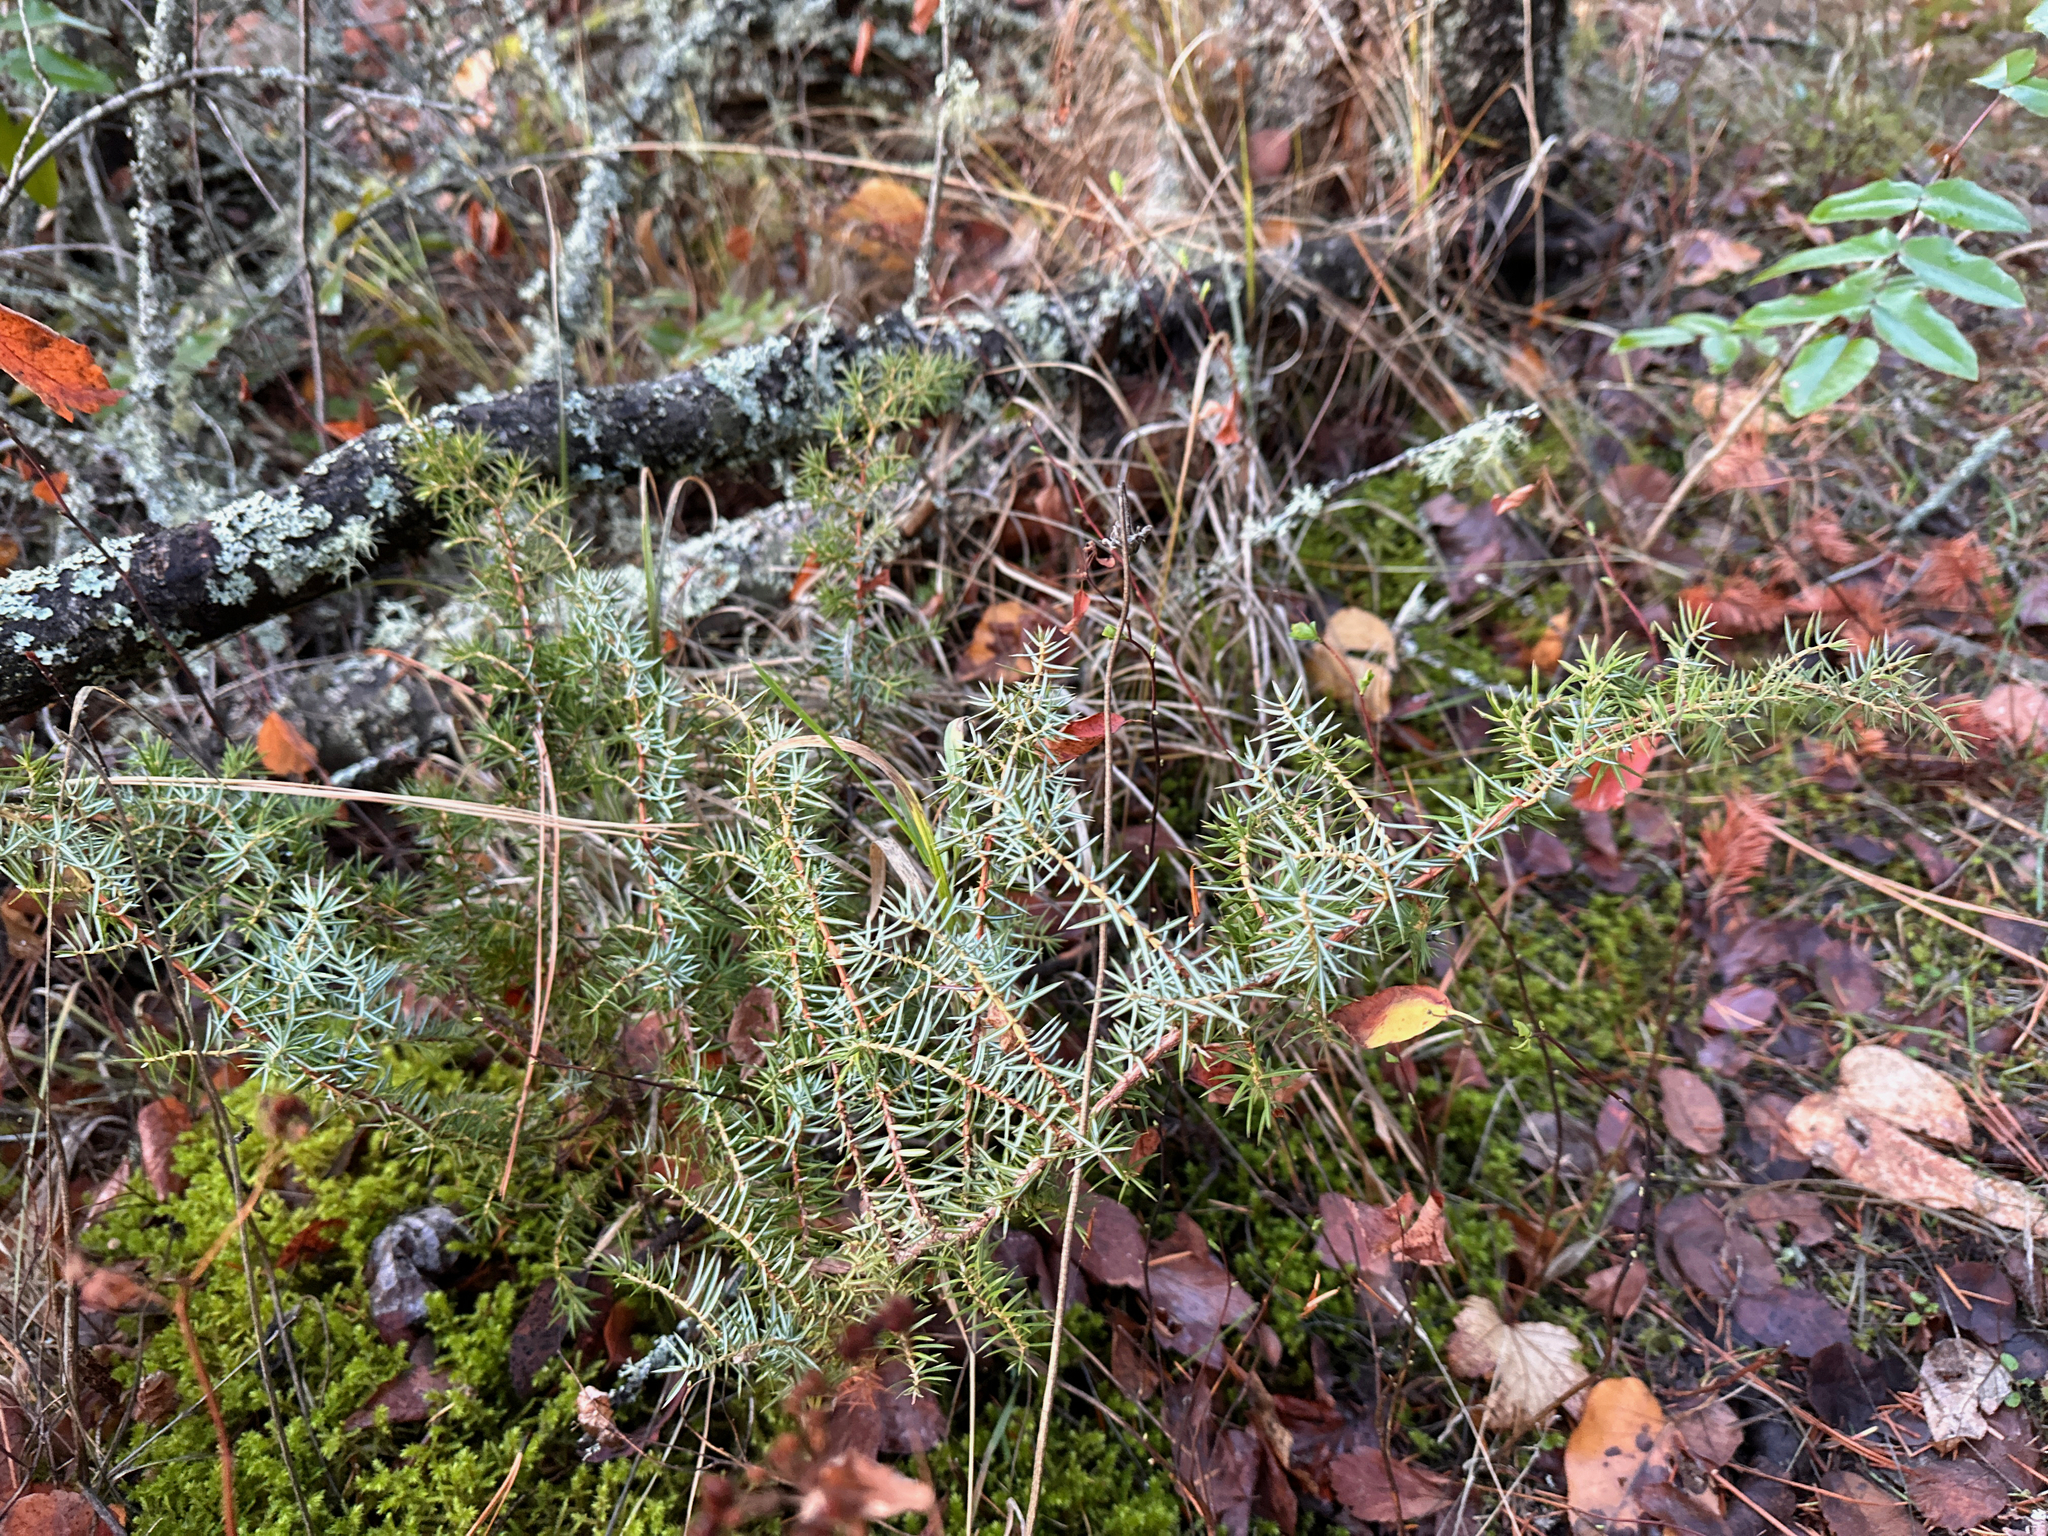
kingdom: Plantae
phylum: Tracheophyta
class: Pinopsida
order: Pinales
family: Cupressaceae
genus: Juniperus
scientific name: Juniperus communis
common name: Common juniper
